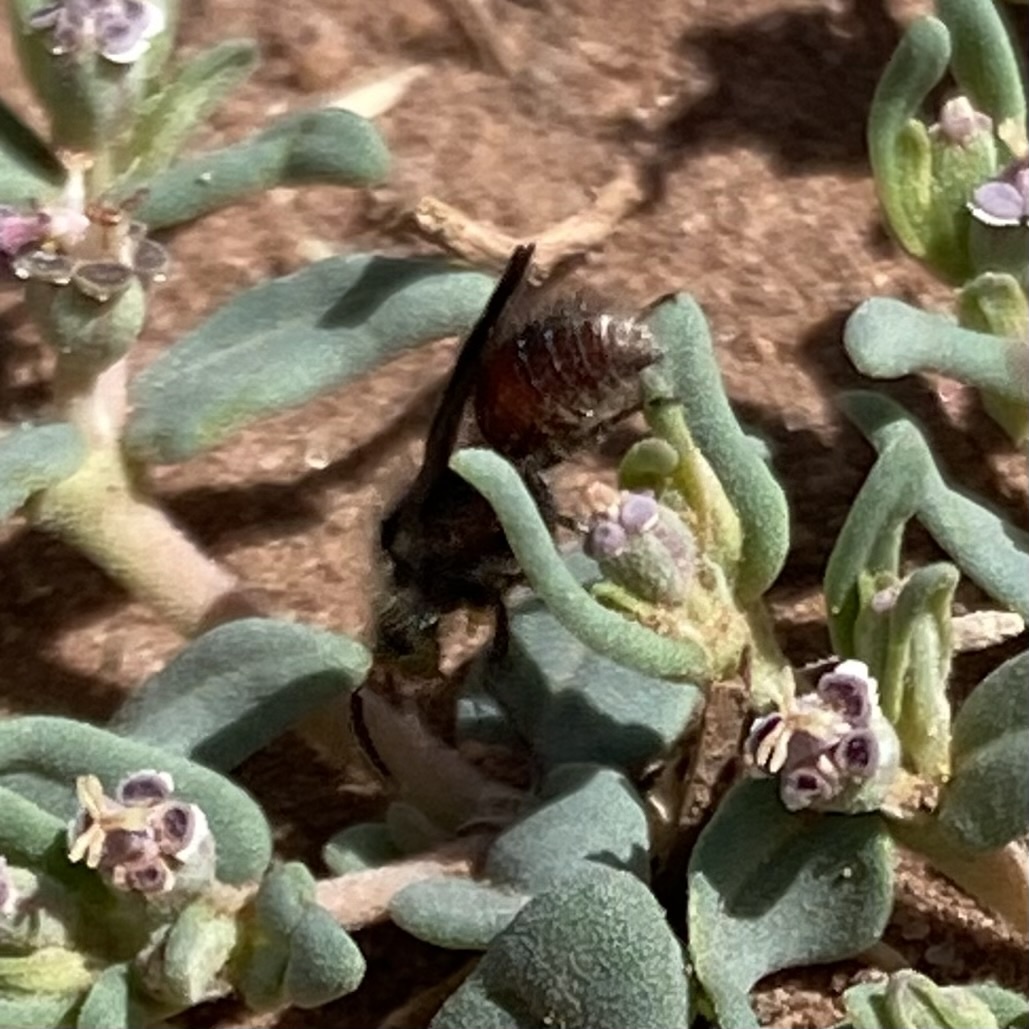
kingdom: Animalia
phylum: Arthropoda
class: Insecta
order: Hymenoptera
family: Mutillidae
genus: Dasymutilla
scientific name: Dasymutilla monticola
